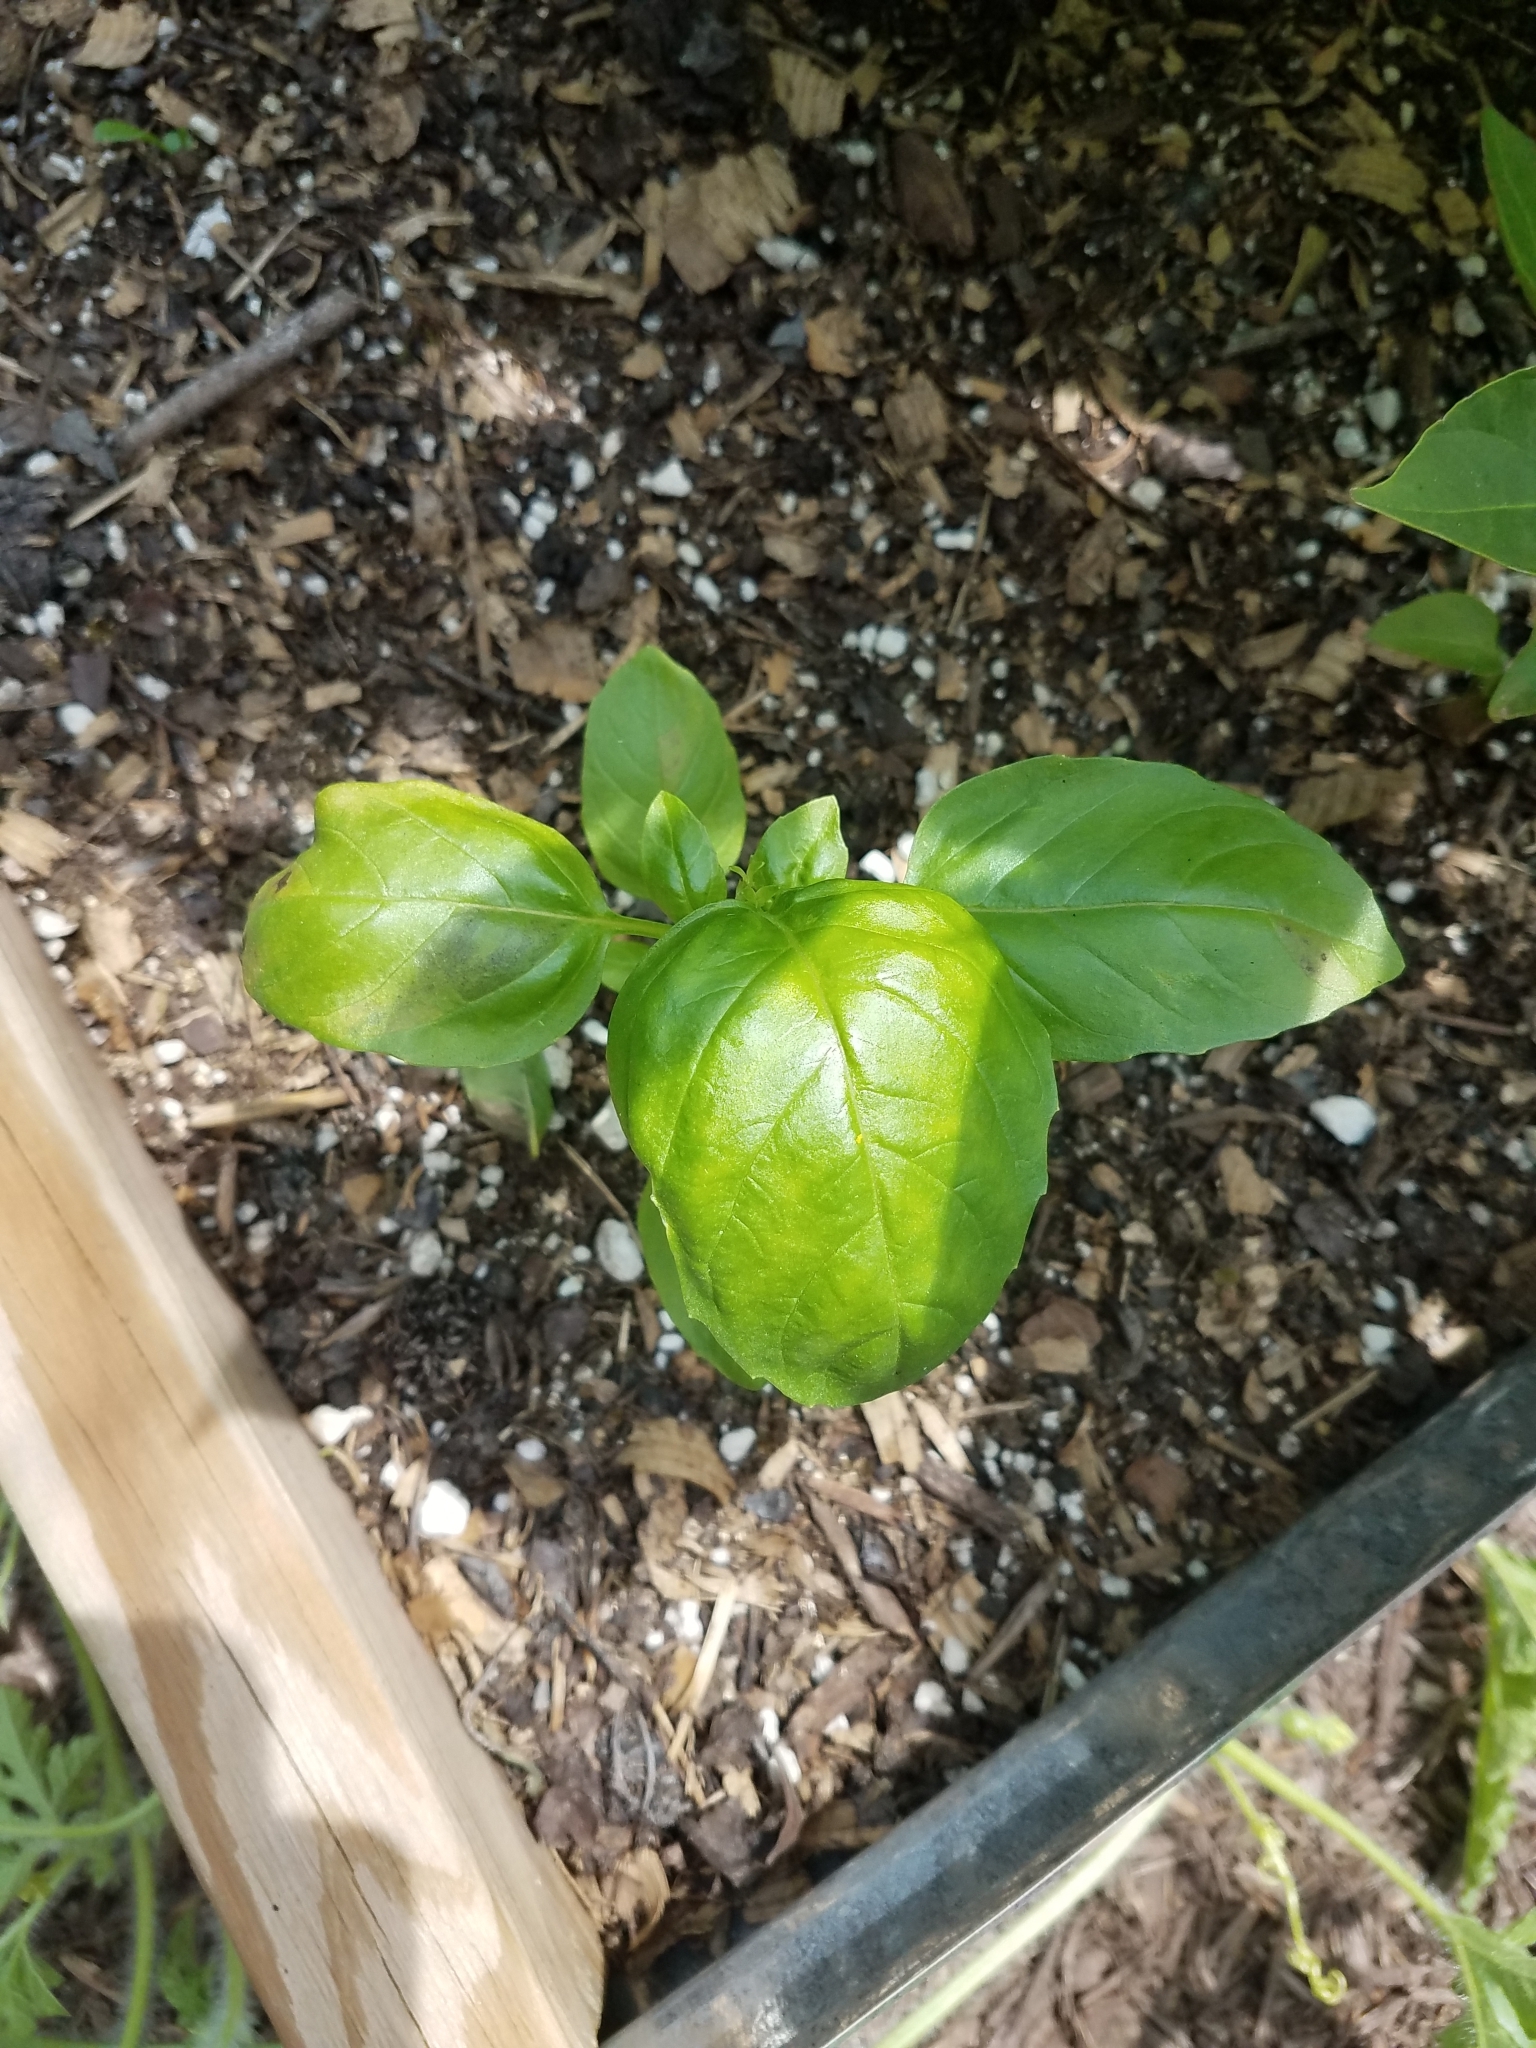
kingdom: Plantae
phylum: Tracheophyta
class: Magnoliopsida
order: Lamiales
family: Lamiaceae
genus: Ocimum
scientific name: Ocimum basilicum
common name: Sweet basil
